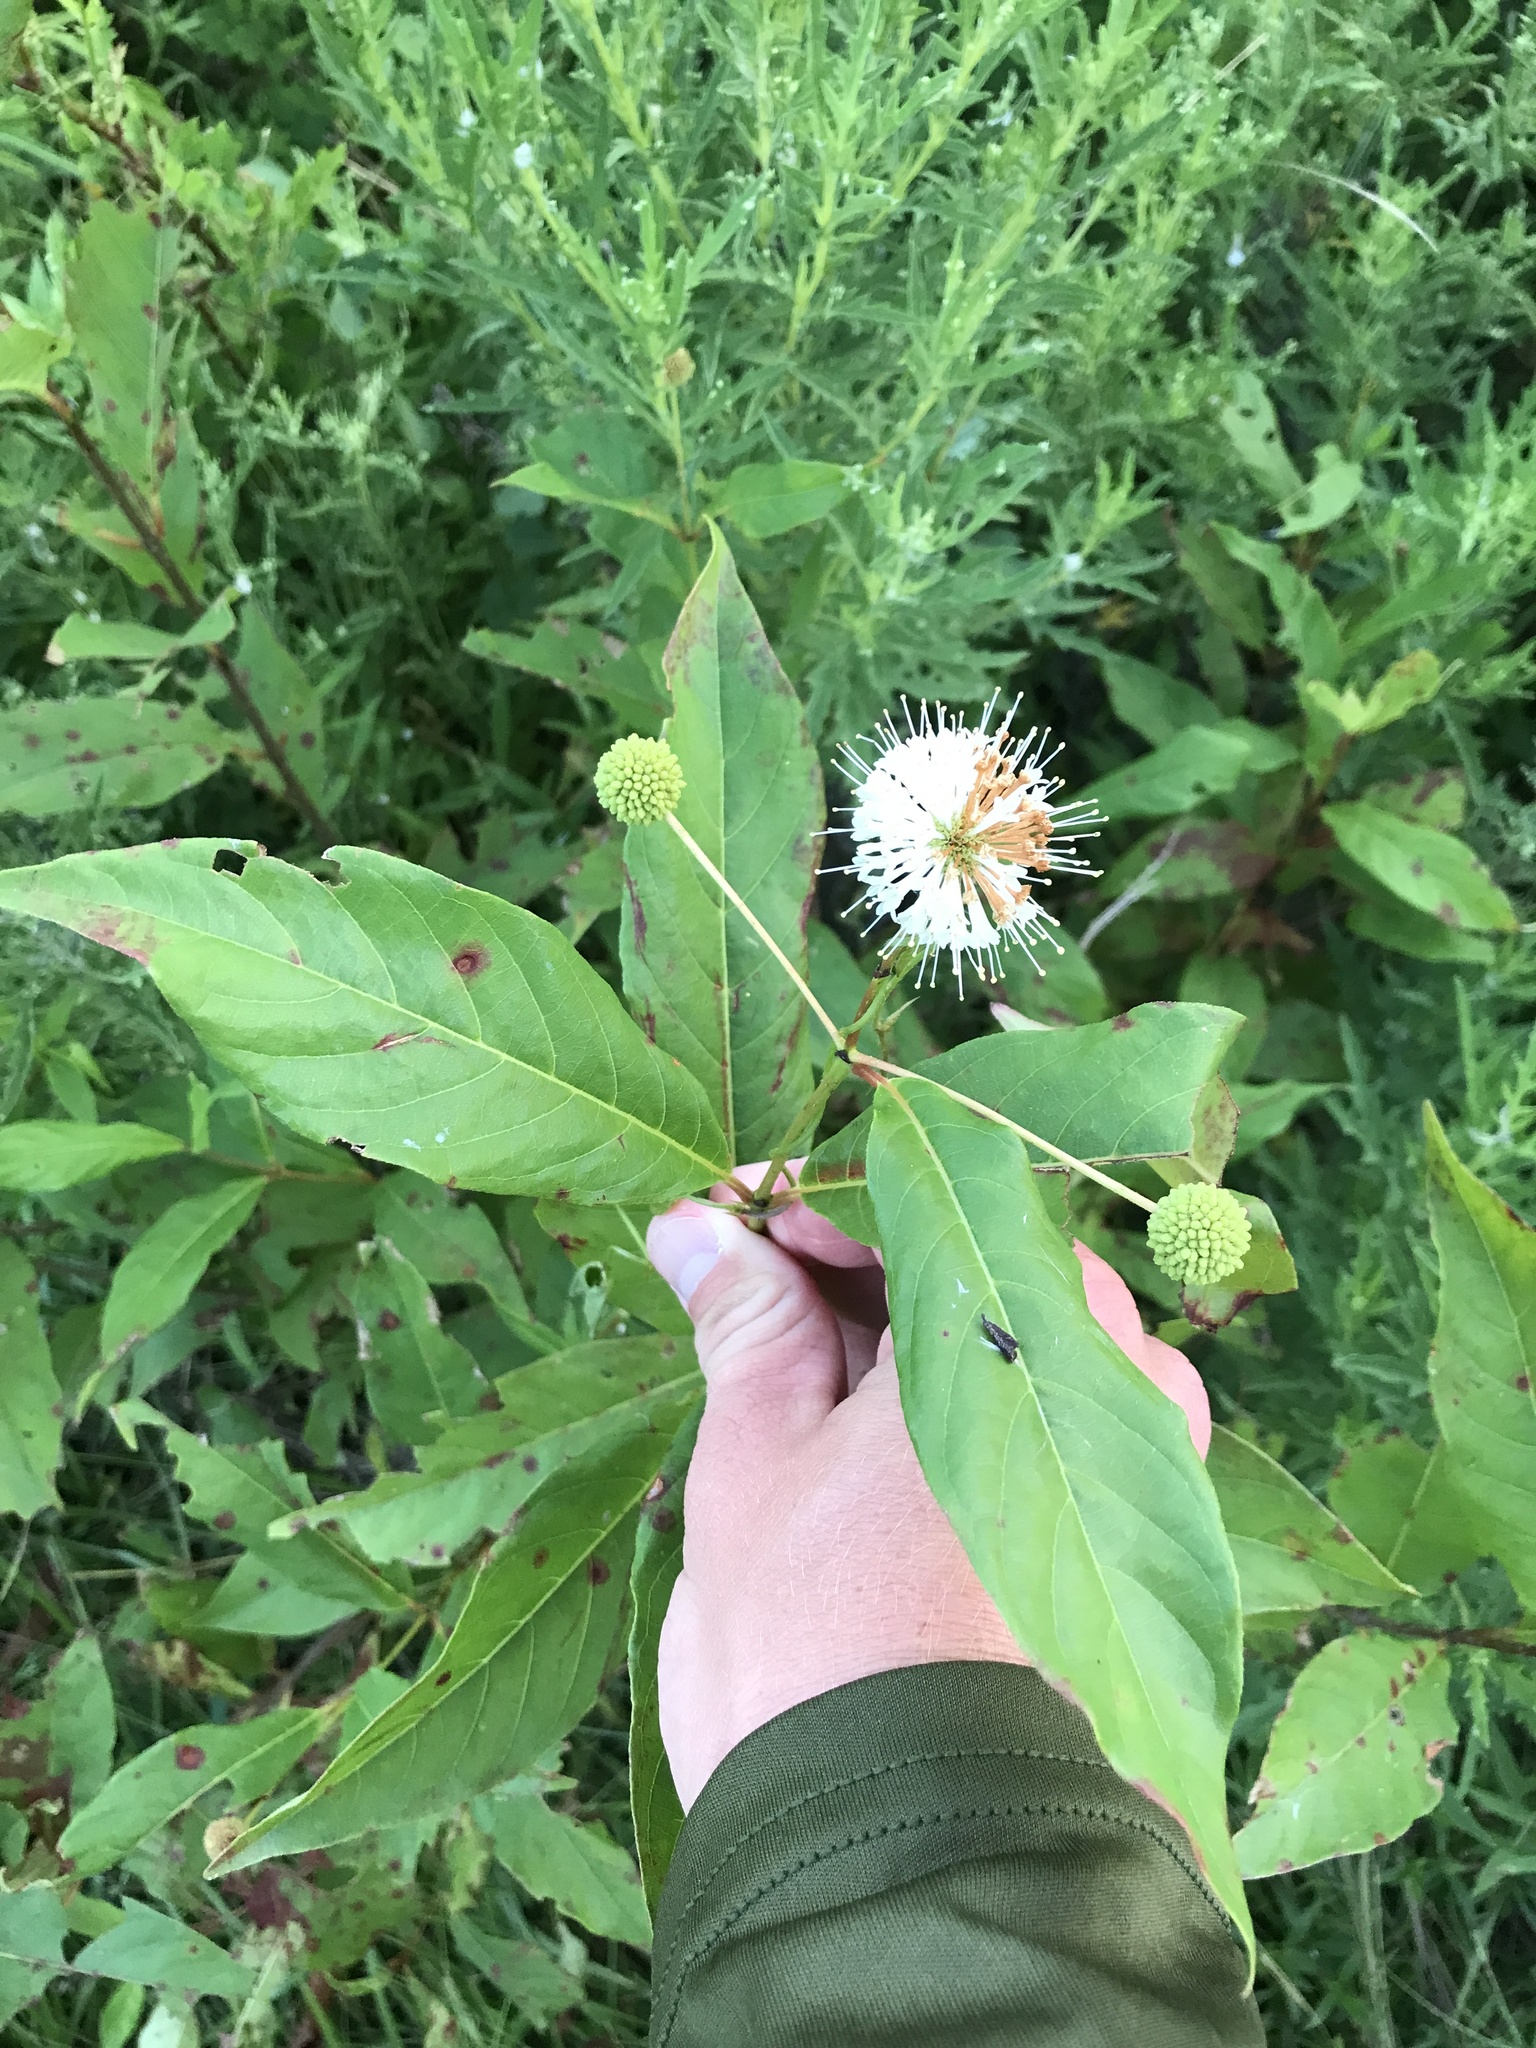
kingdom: Plantae
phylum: Tracheophyta
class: Magnoliopsida
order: Gentianales
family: Rubiaceae
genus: Cephalanthus
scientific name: Cephalanthus occidentalis
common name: Button-willow
